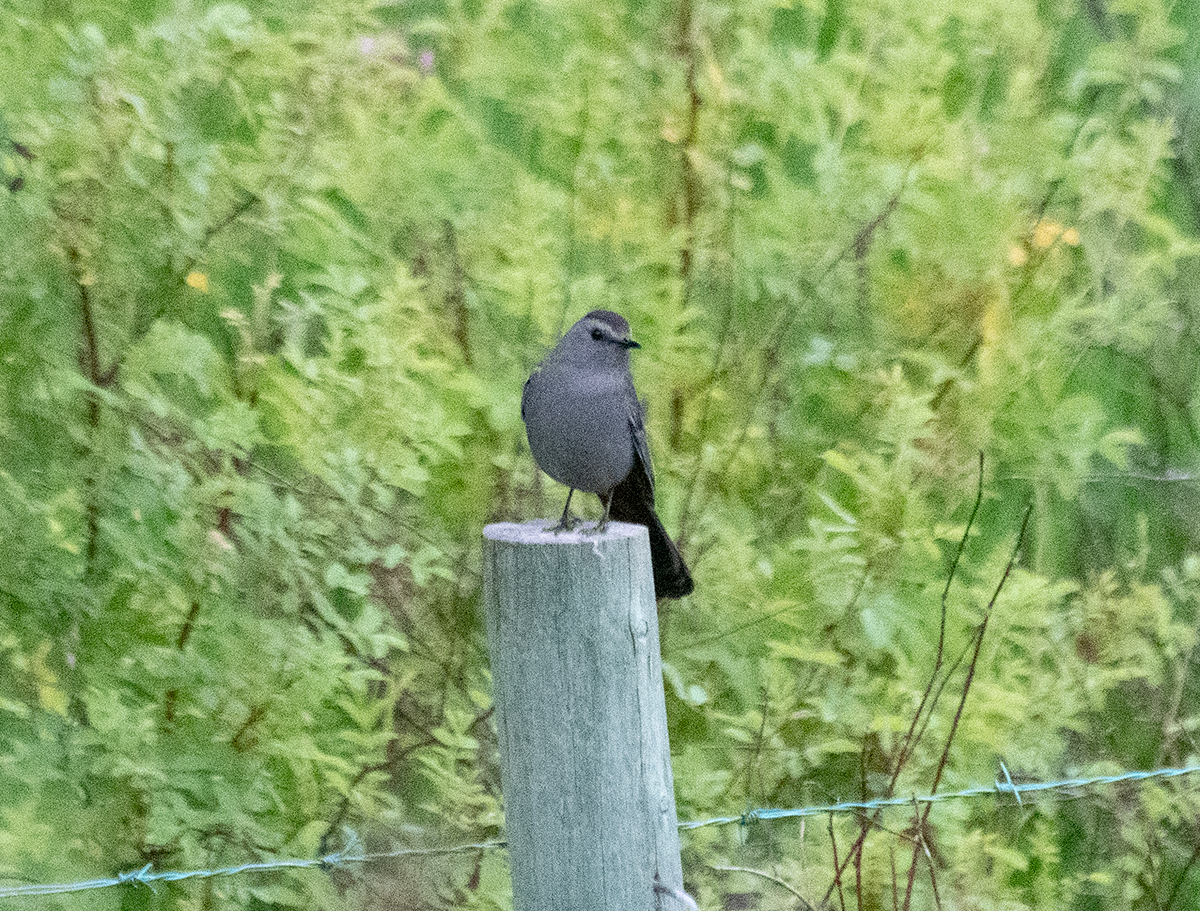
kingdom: Animalia
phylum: Chordata
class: Aves
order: Passeriformes
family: Mimidae
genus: Dumetella
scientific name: Dumetella carolinensis
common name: Gray catbird
